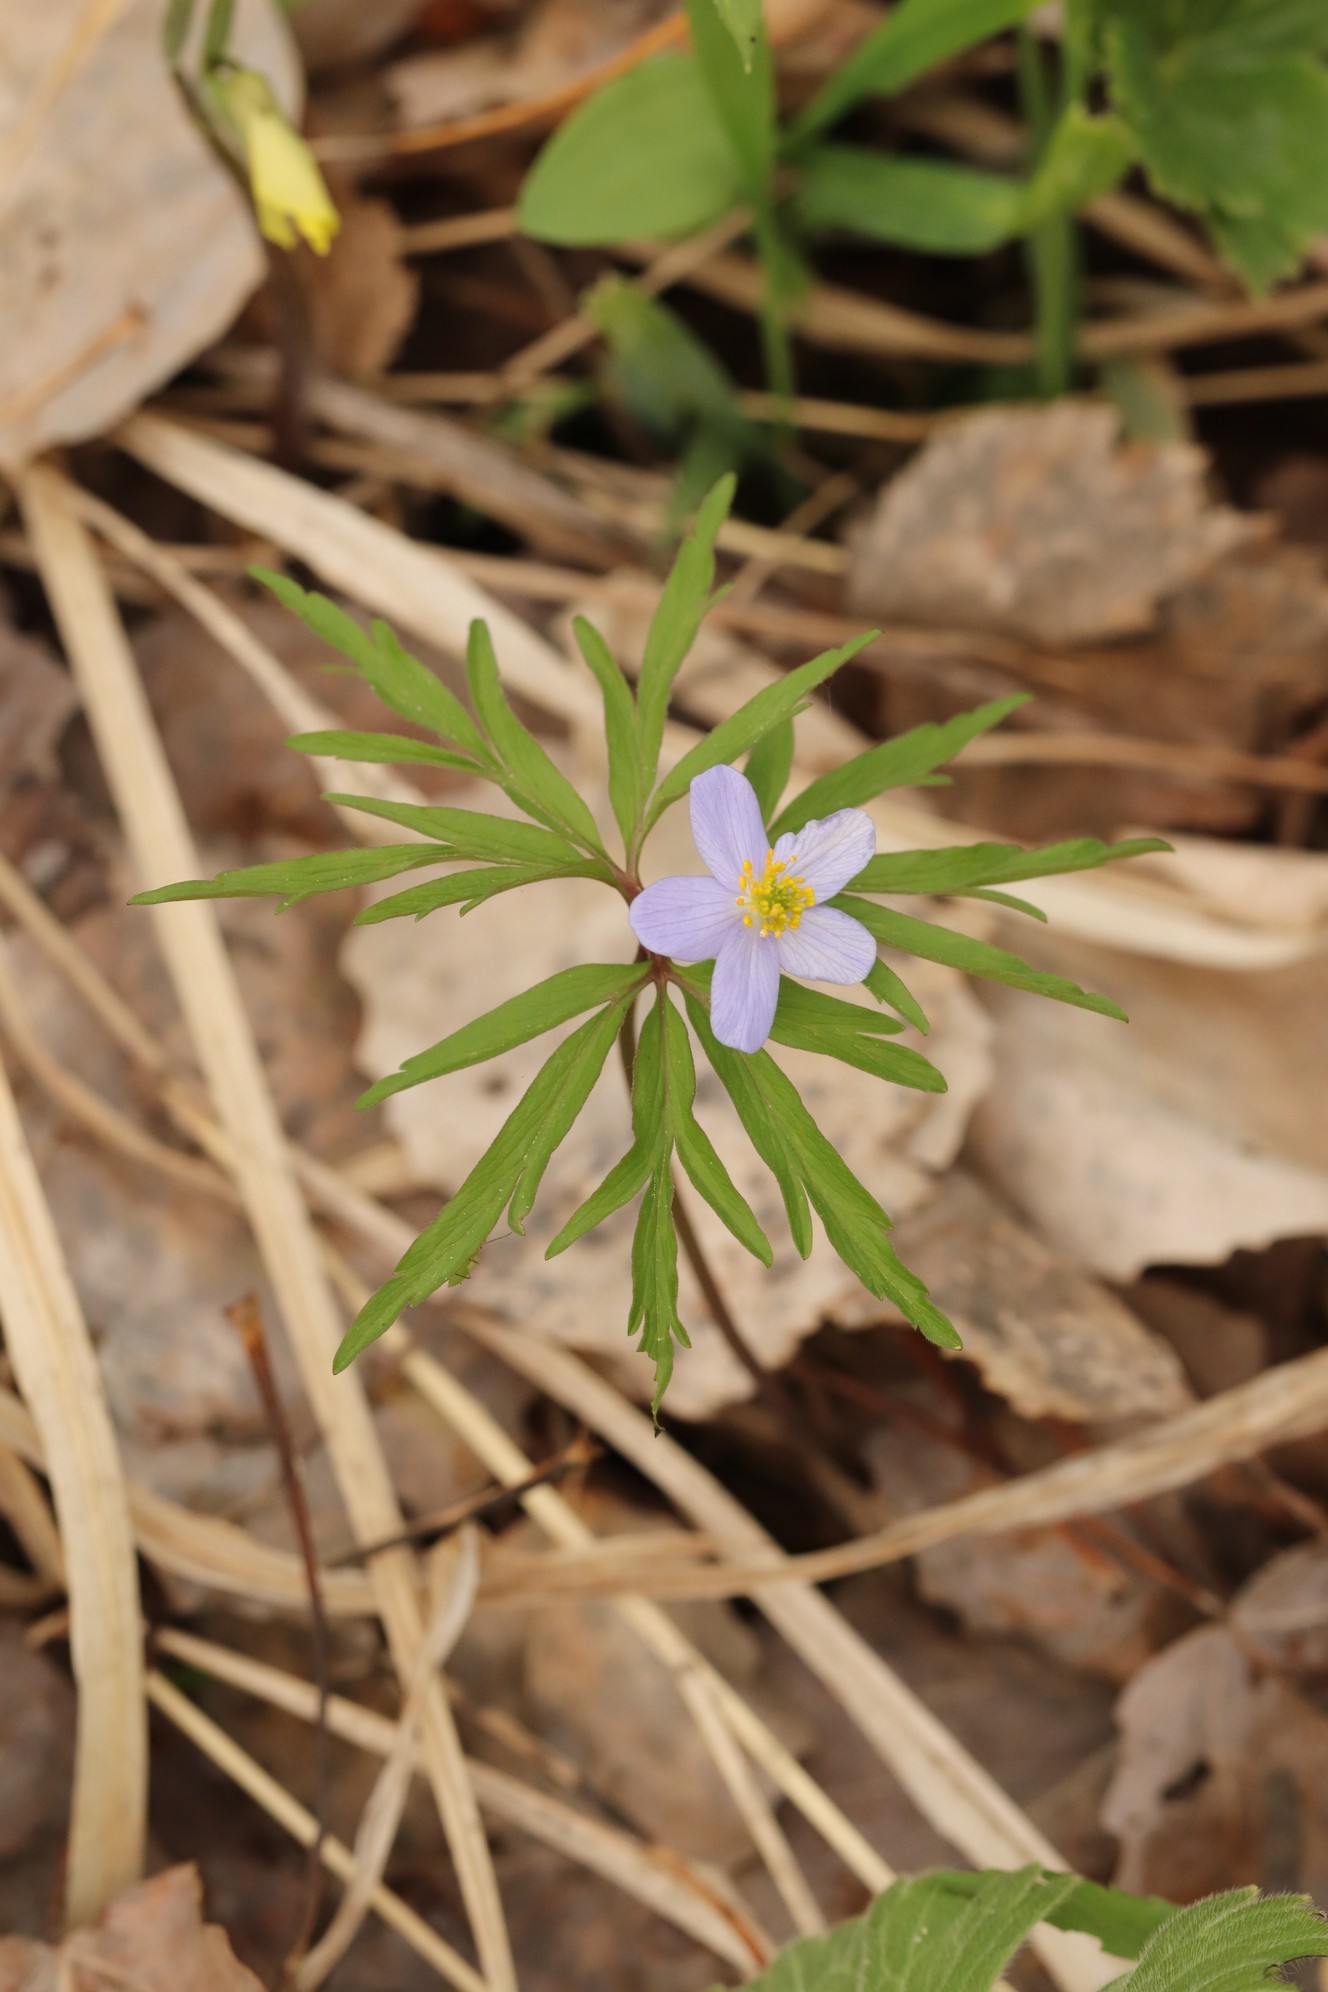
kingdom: Plantae
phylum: Tracheophyta
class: Magnoliopsida
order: Ranunculales
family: Ranunculaceae
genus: Anemone
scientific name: Anemone caerulea
